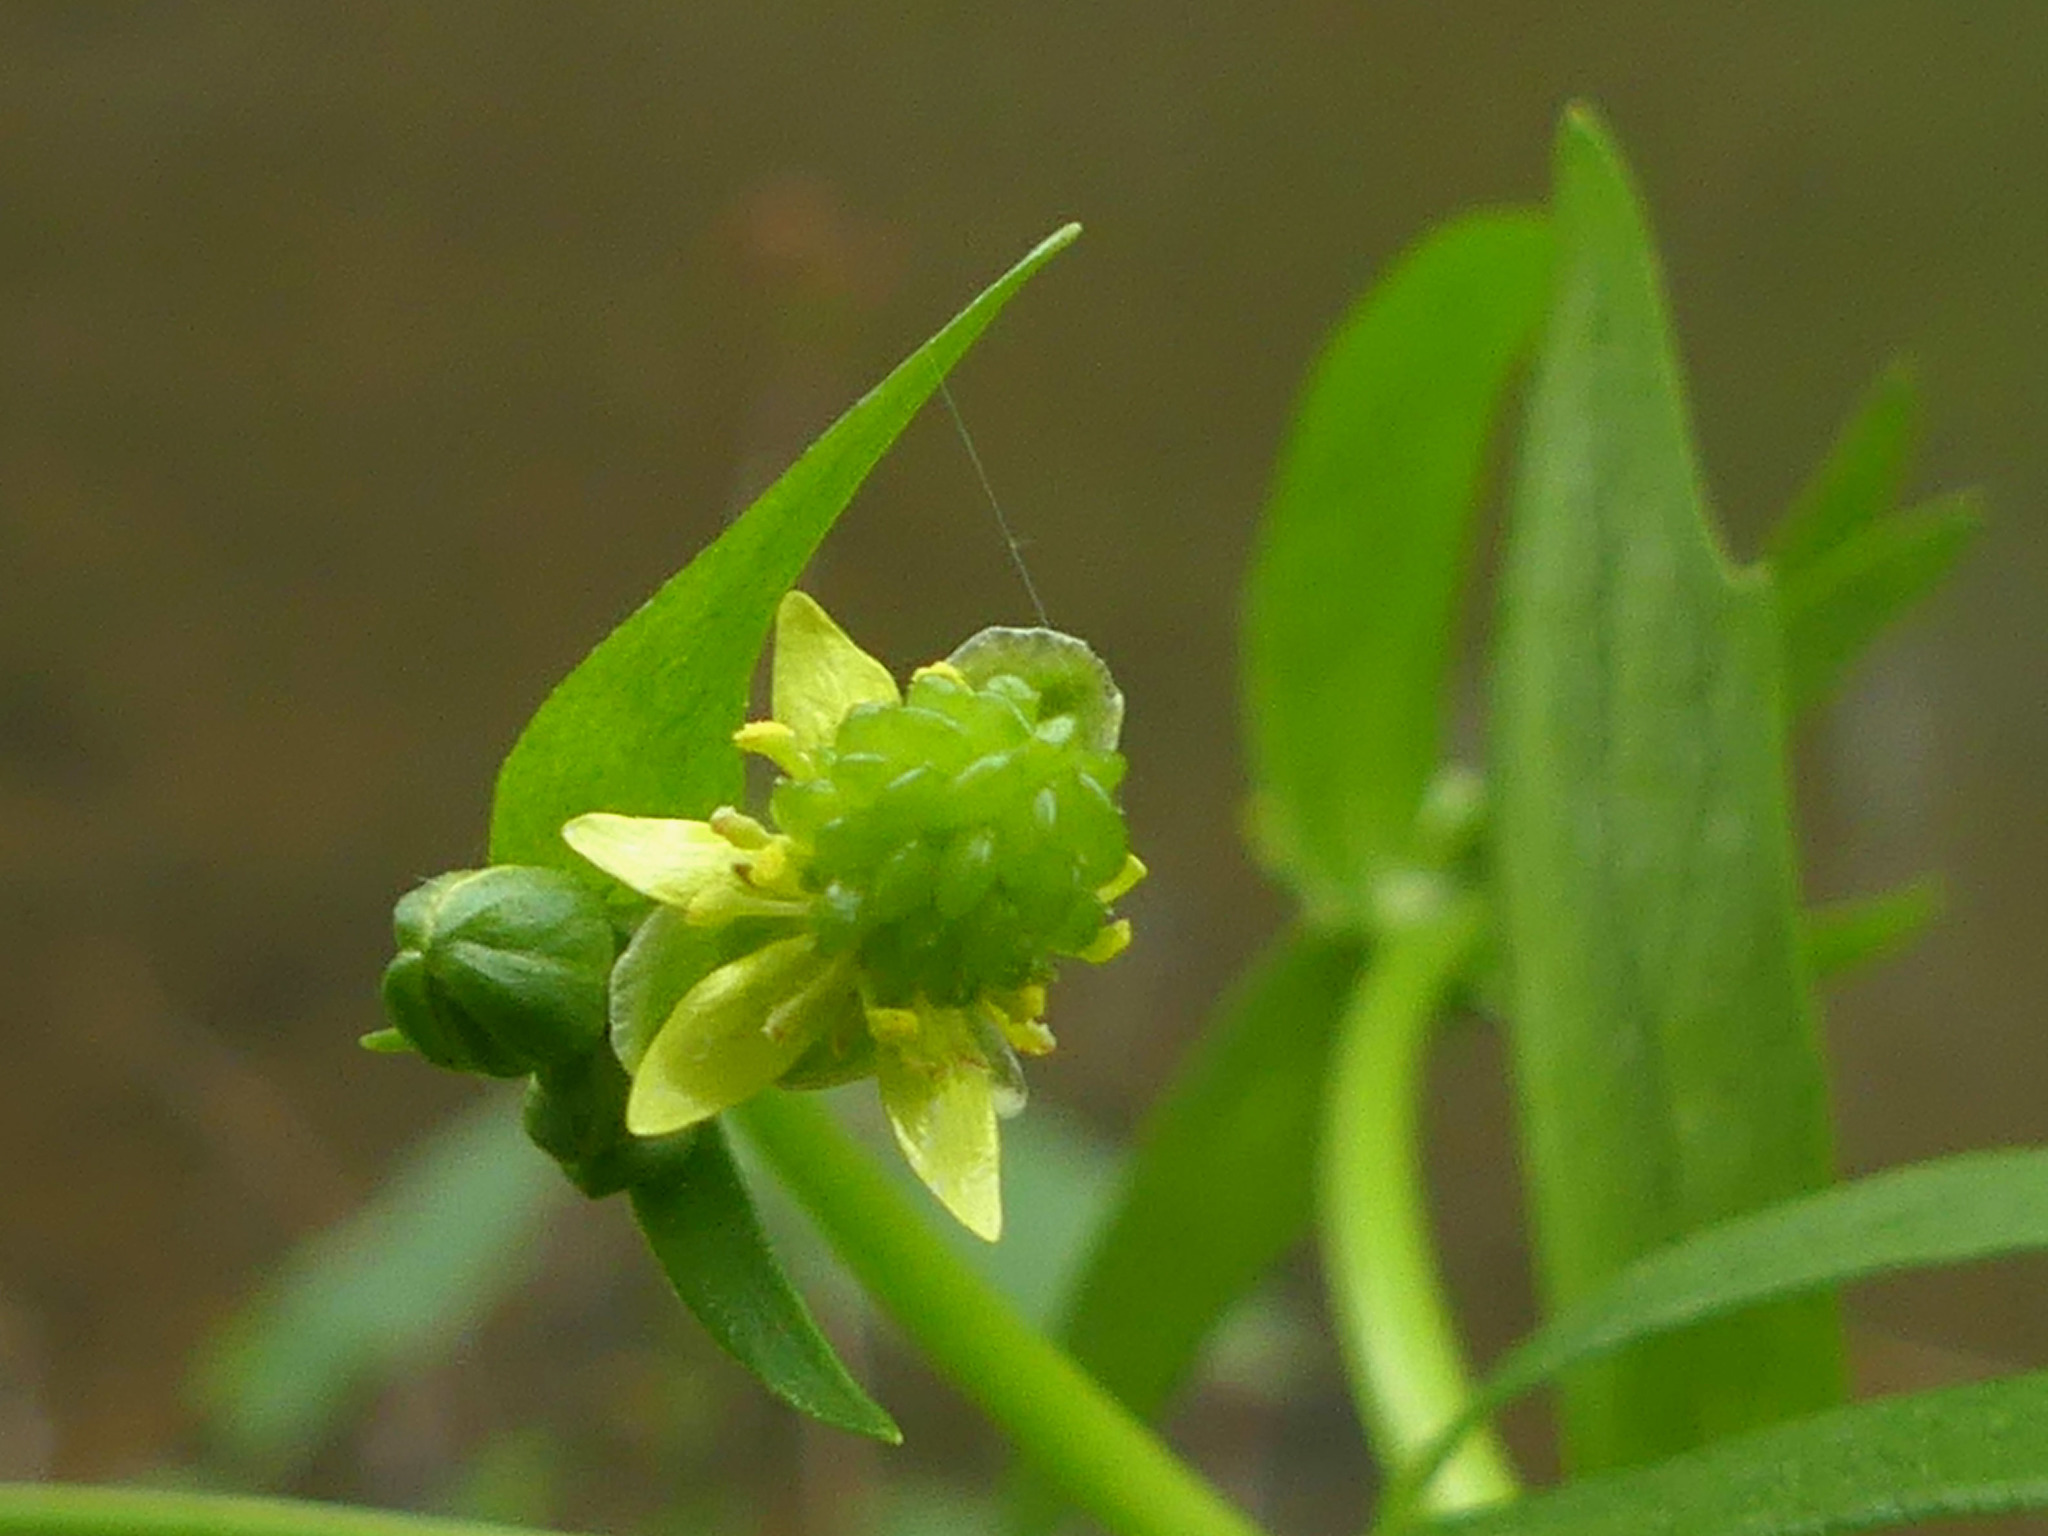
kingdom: Plantae
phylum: Tracheophyta
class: Magnoliopsida
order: Ranunculales
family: Ranunculaceae
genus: Ranunculus
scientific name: Ranunculus abortivus
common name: Early wood buttercup
